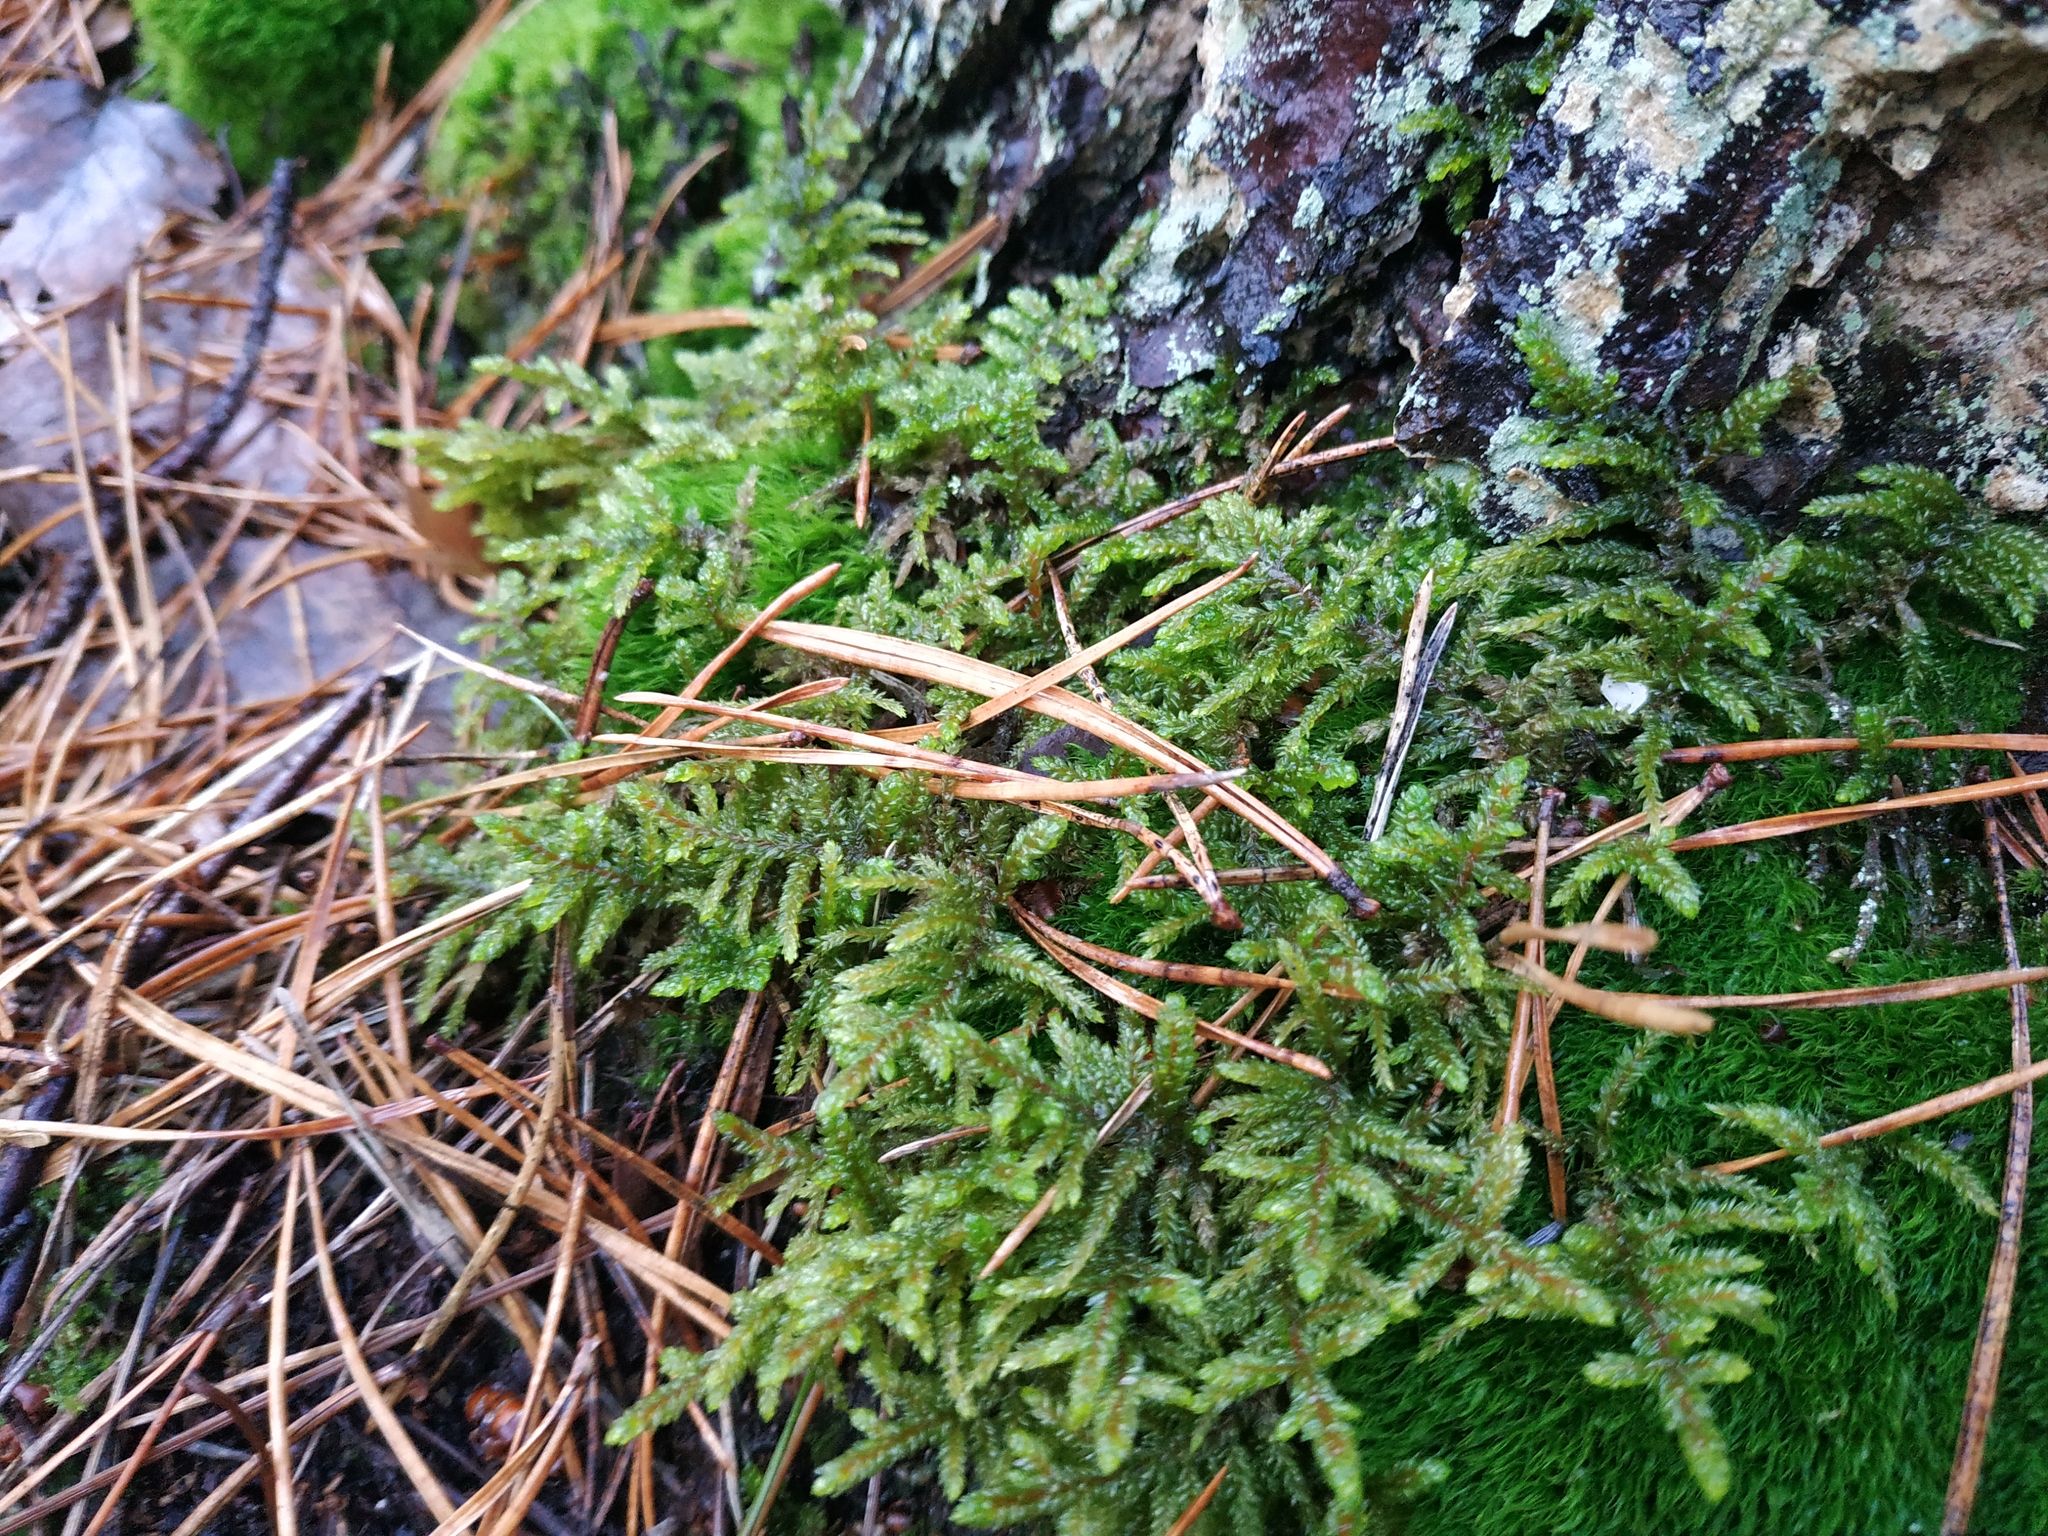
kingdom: Plantae
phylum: Bryophyta
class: Bryopsida
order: Hypnales
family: Hylocomiaceae
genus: Pleurozium
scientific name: Pleurozium schreberi
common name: Red-stemmed feather moss
